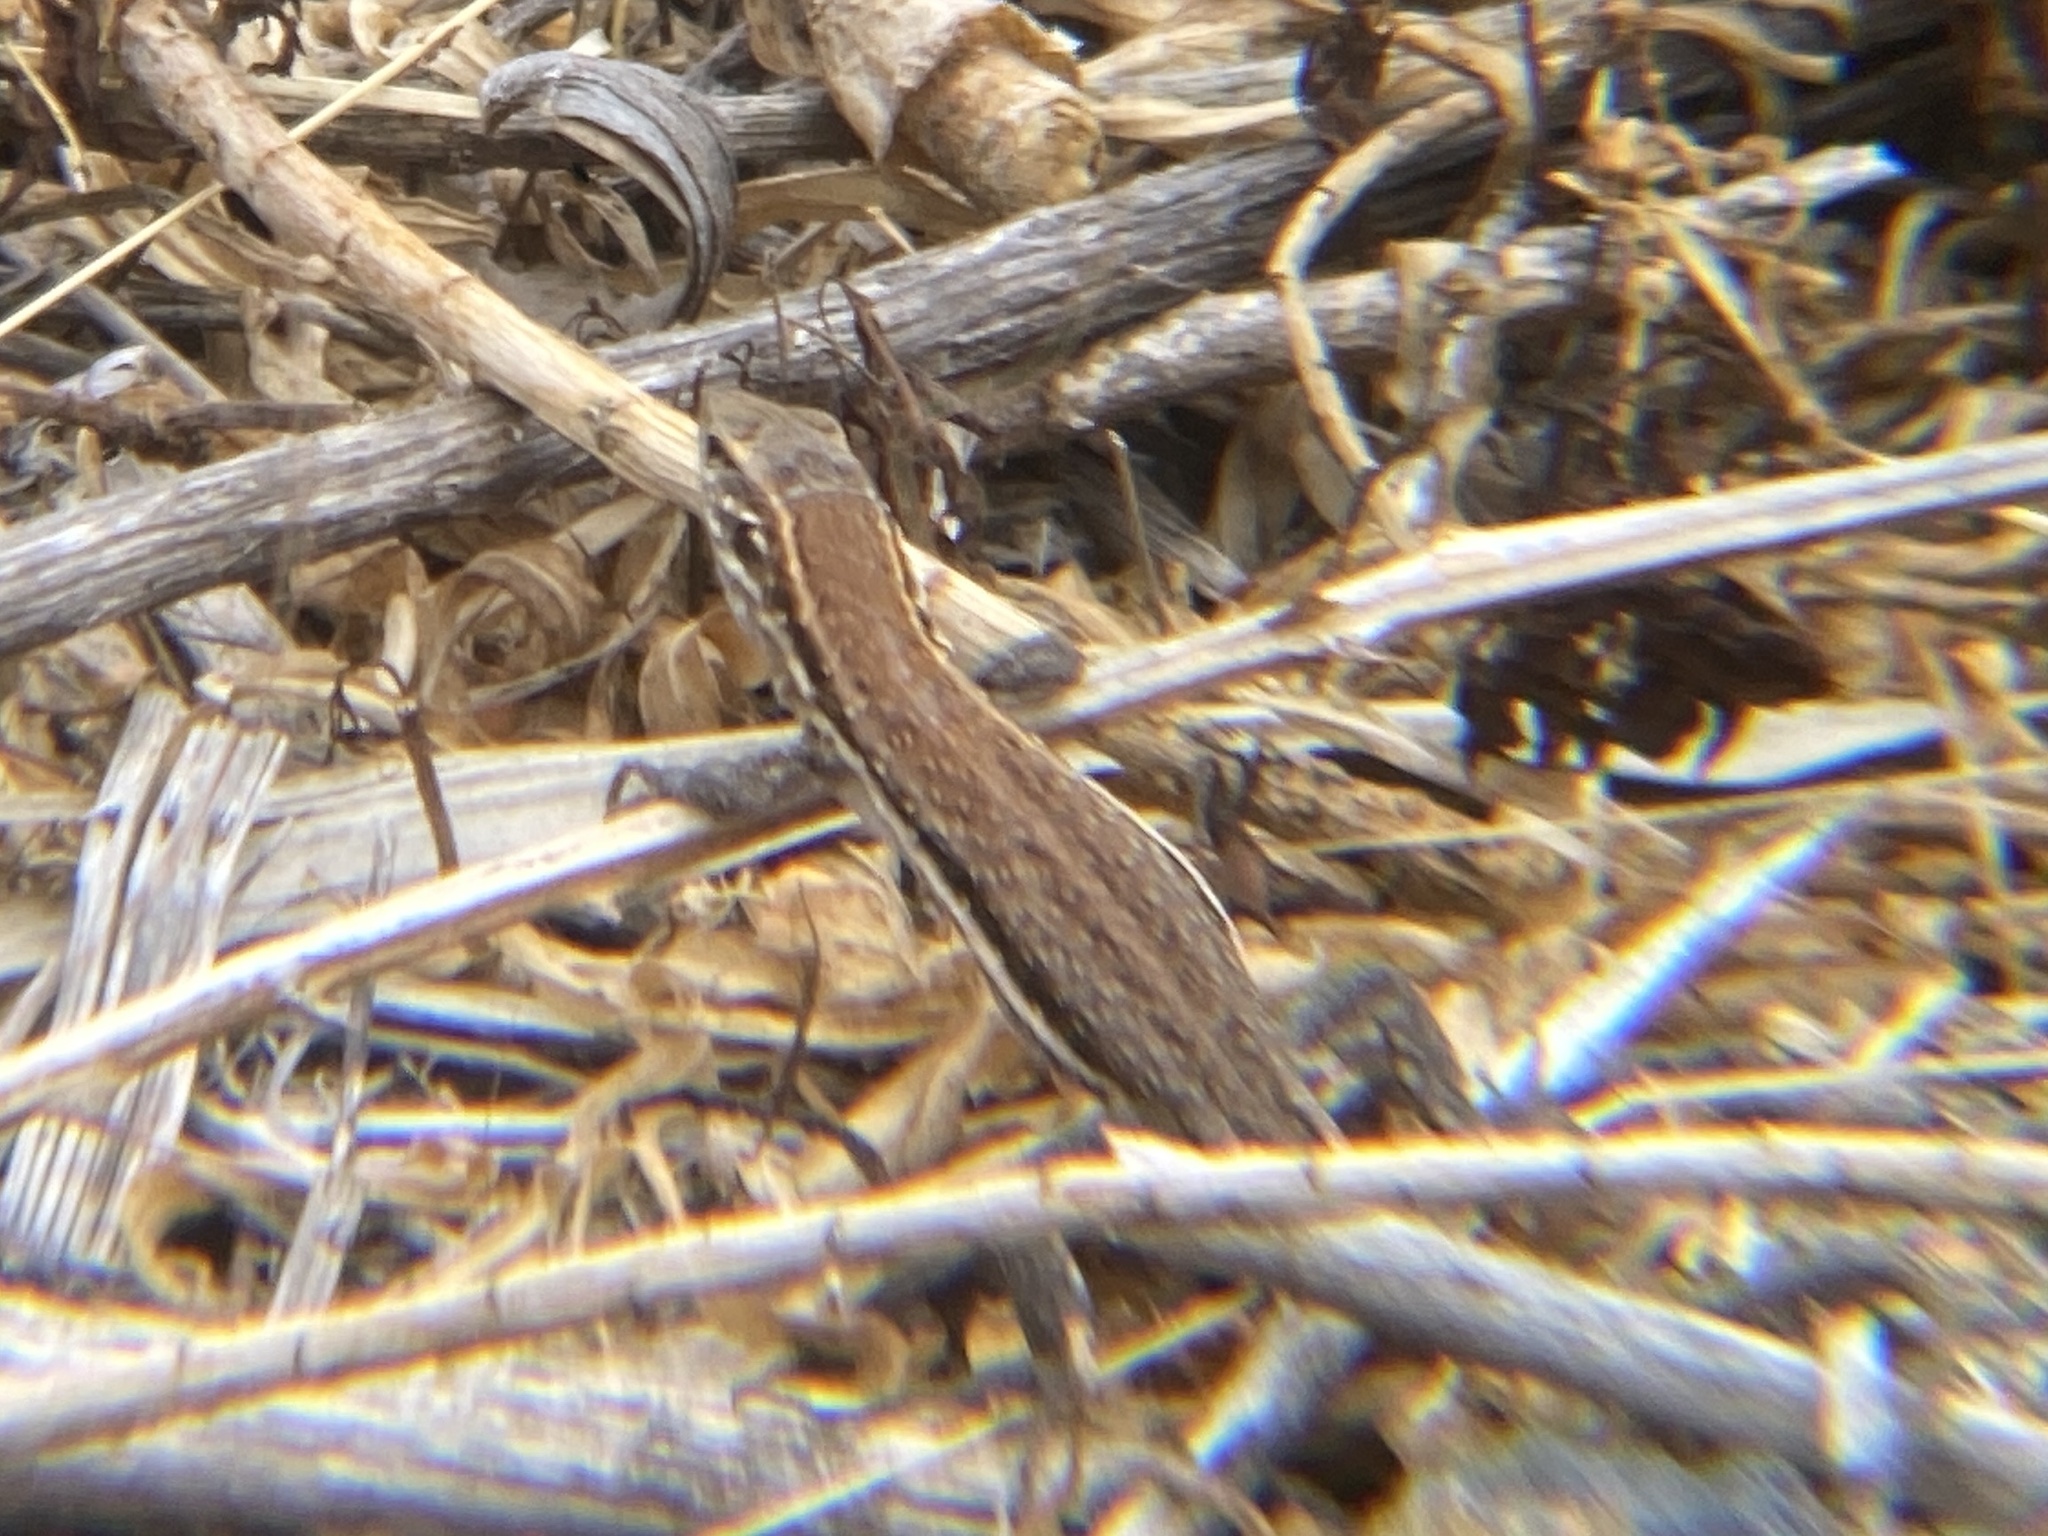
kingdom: Animalia
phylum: Chordata
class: Squamata
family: Lacertidae
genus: Gallotia
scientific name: Gallotia galloti
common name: Gallot's lizard
